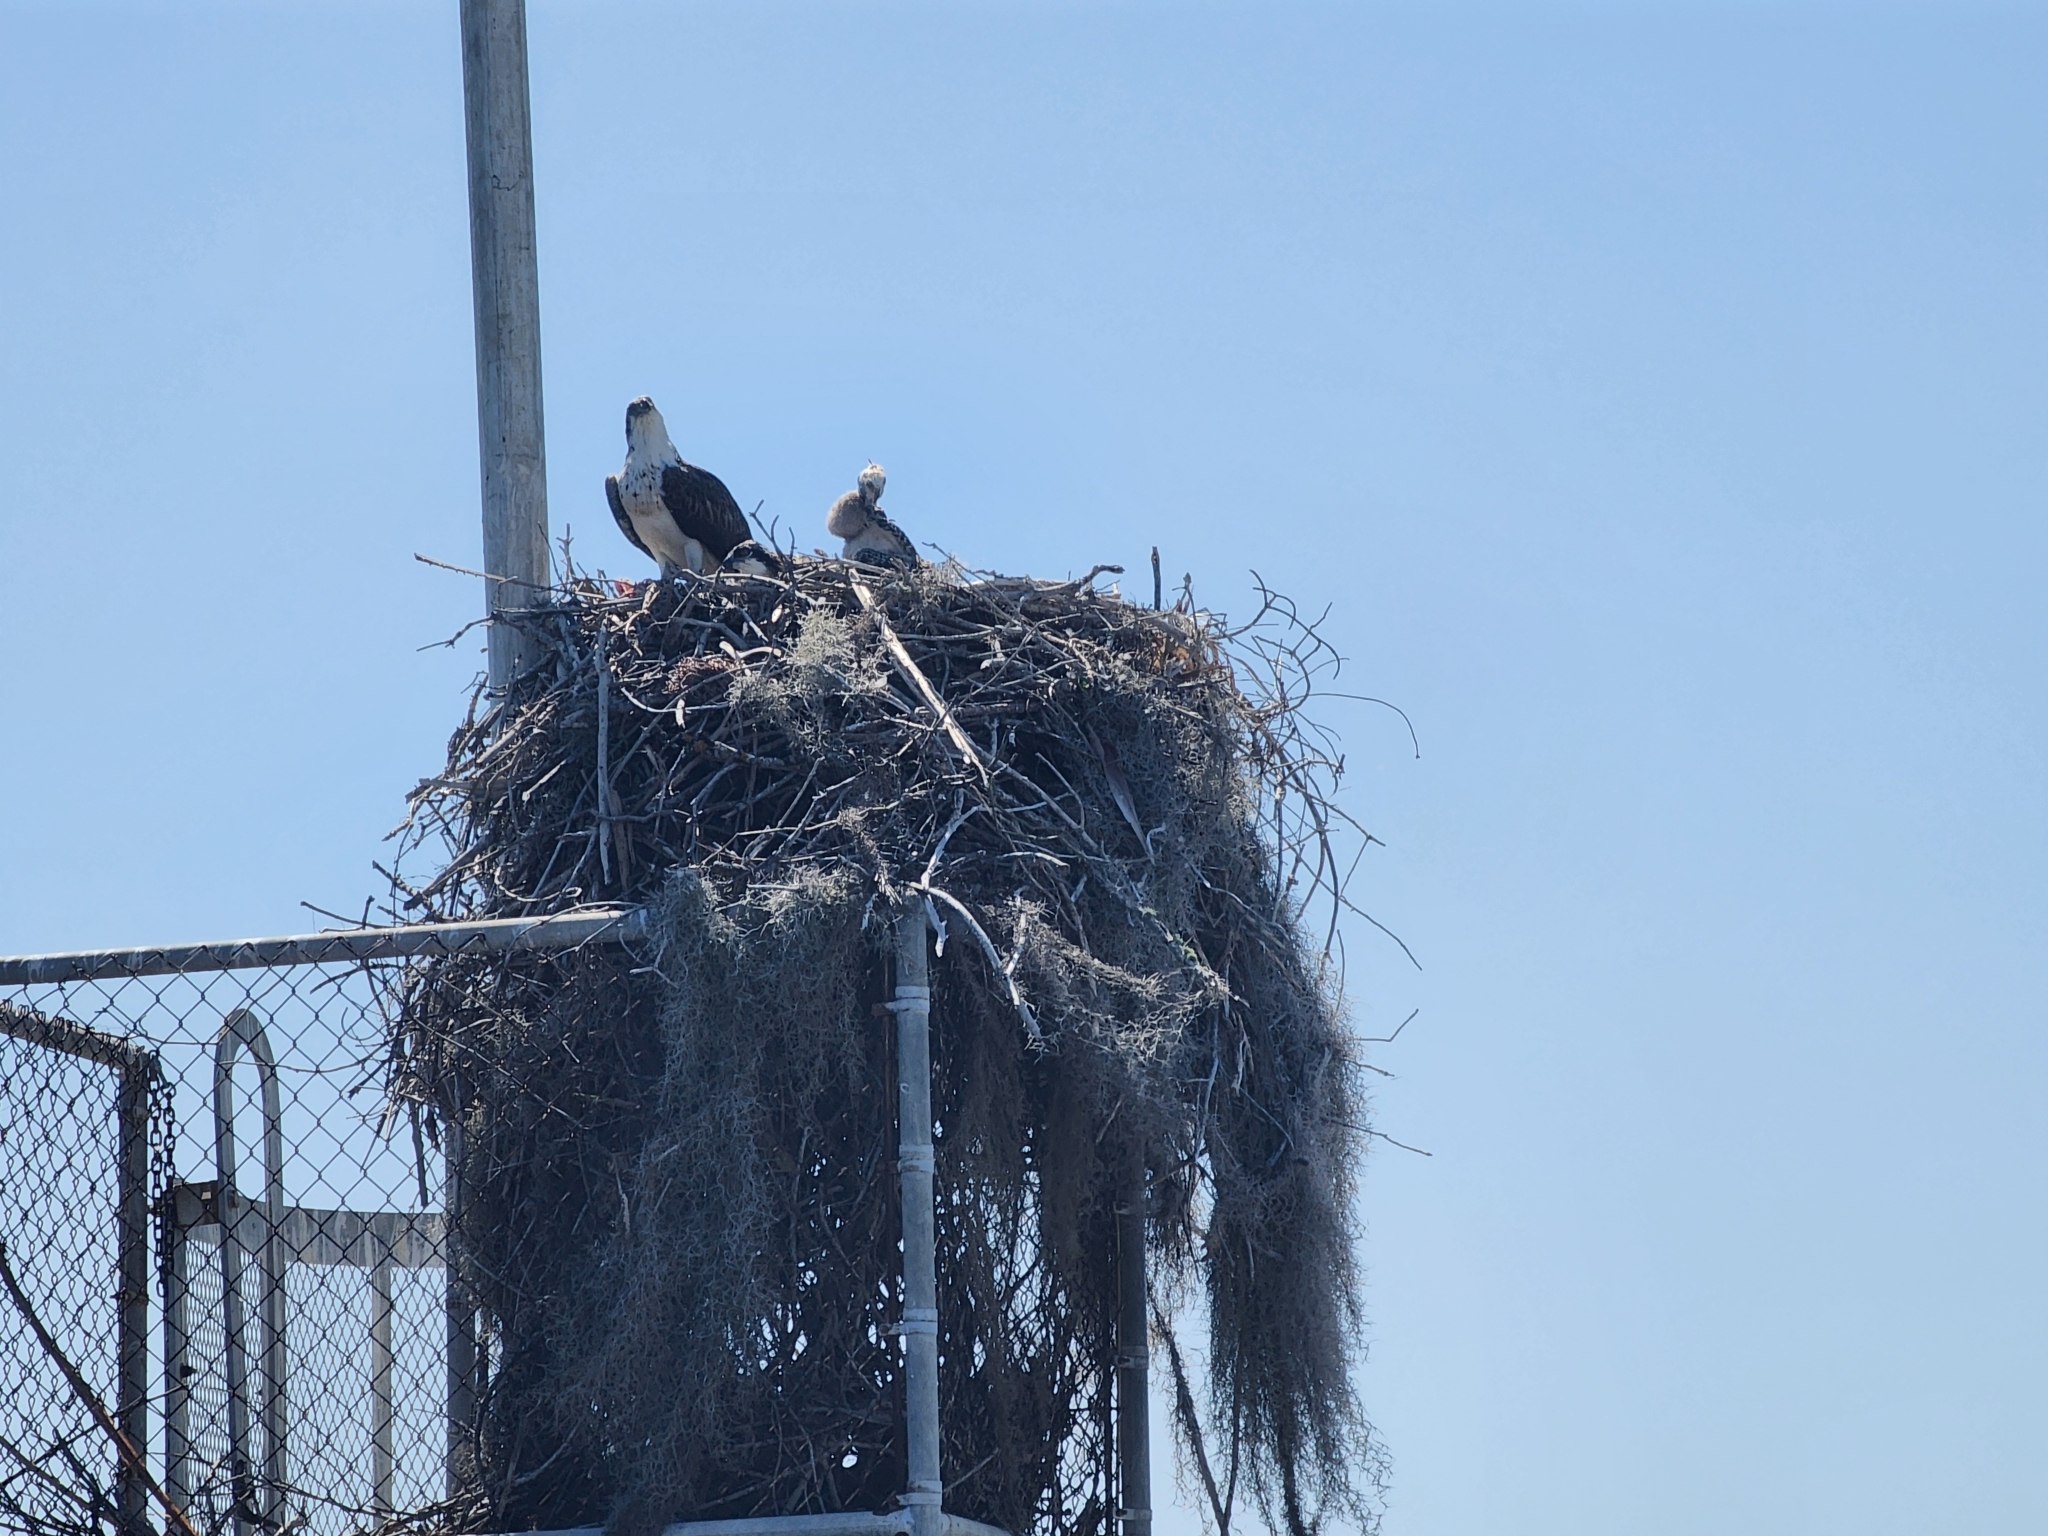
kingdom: Animalia
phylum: Chordata
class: Aves
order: Accipitriformes
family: Pandionidae
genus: Pandion
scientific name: Pandion haliaetus
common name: Osprey
